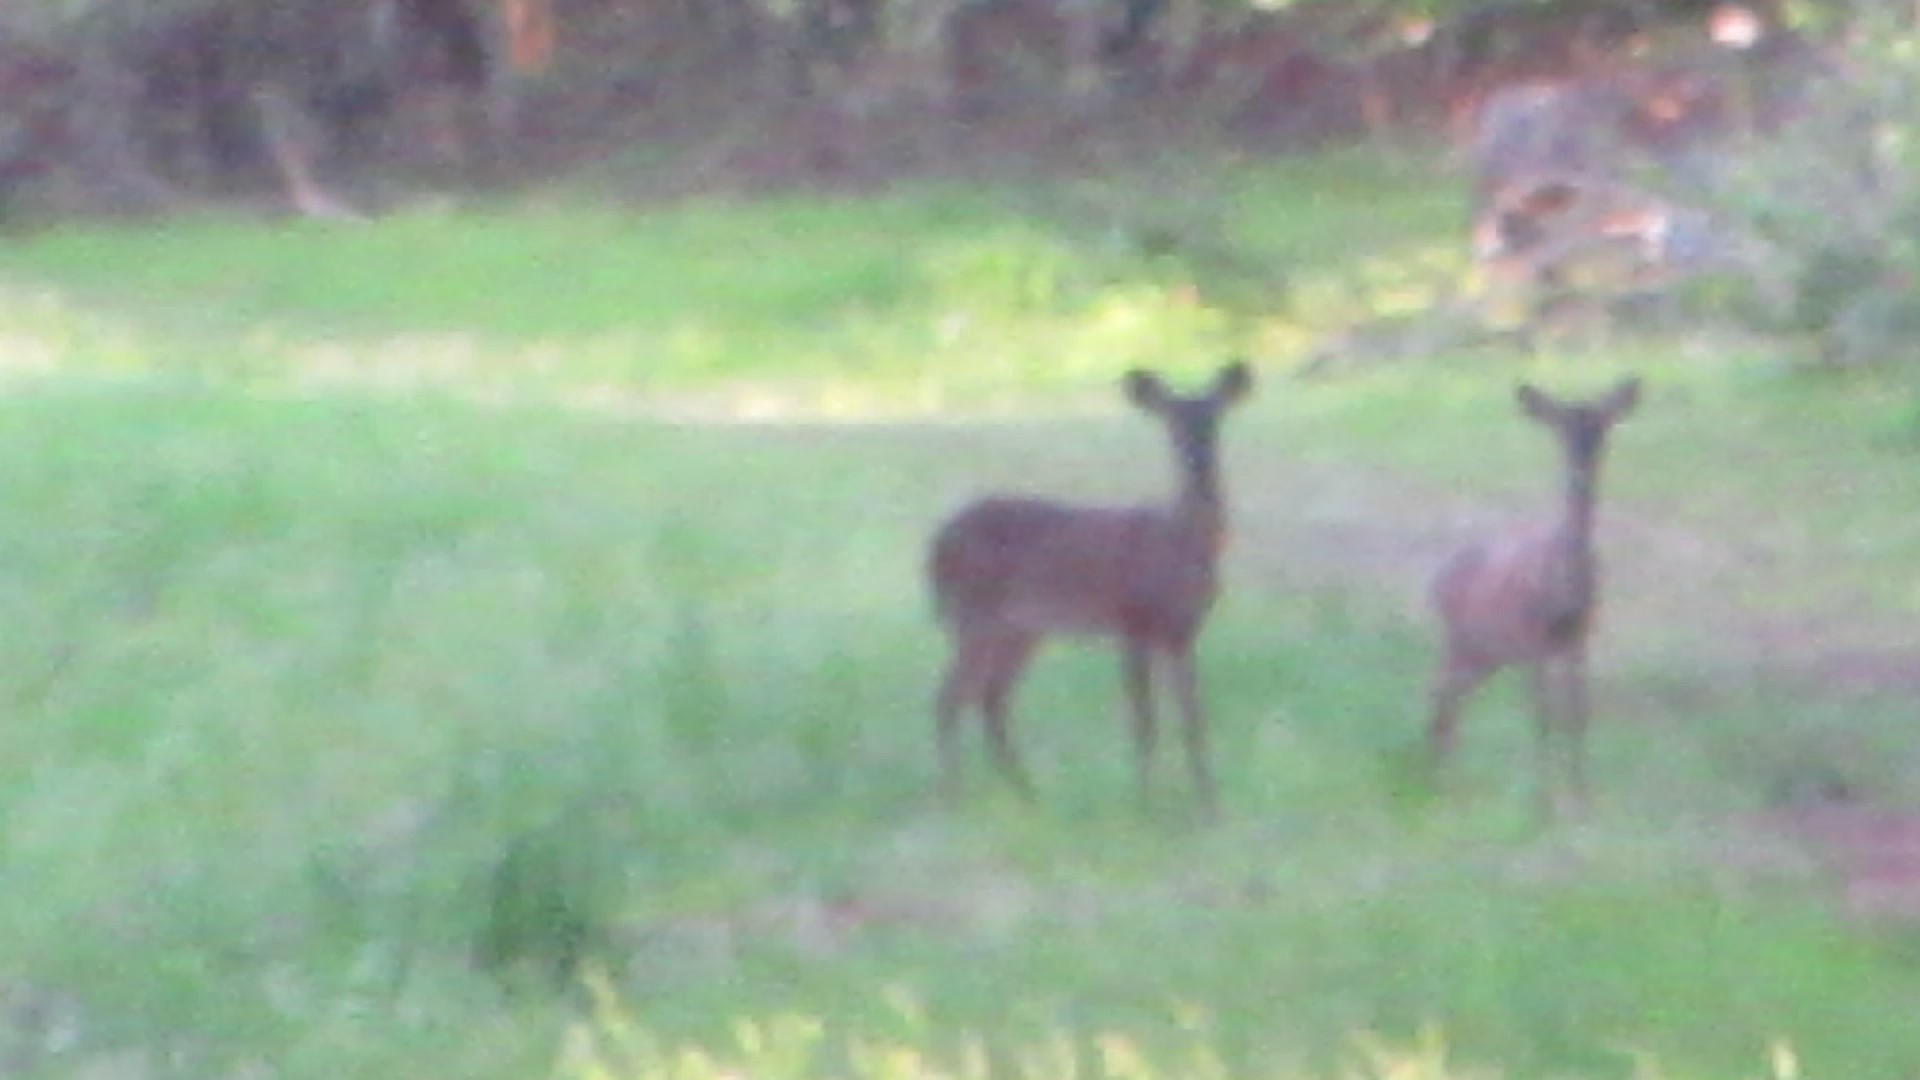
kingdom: Animalia
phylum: Chordata
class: Mammalia
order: Artiodactyla
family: Cervidae
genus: Odocoileus
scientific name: Odocoileus virginianus
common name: White-tailed deer
